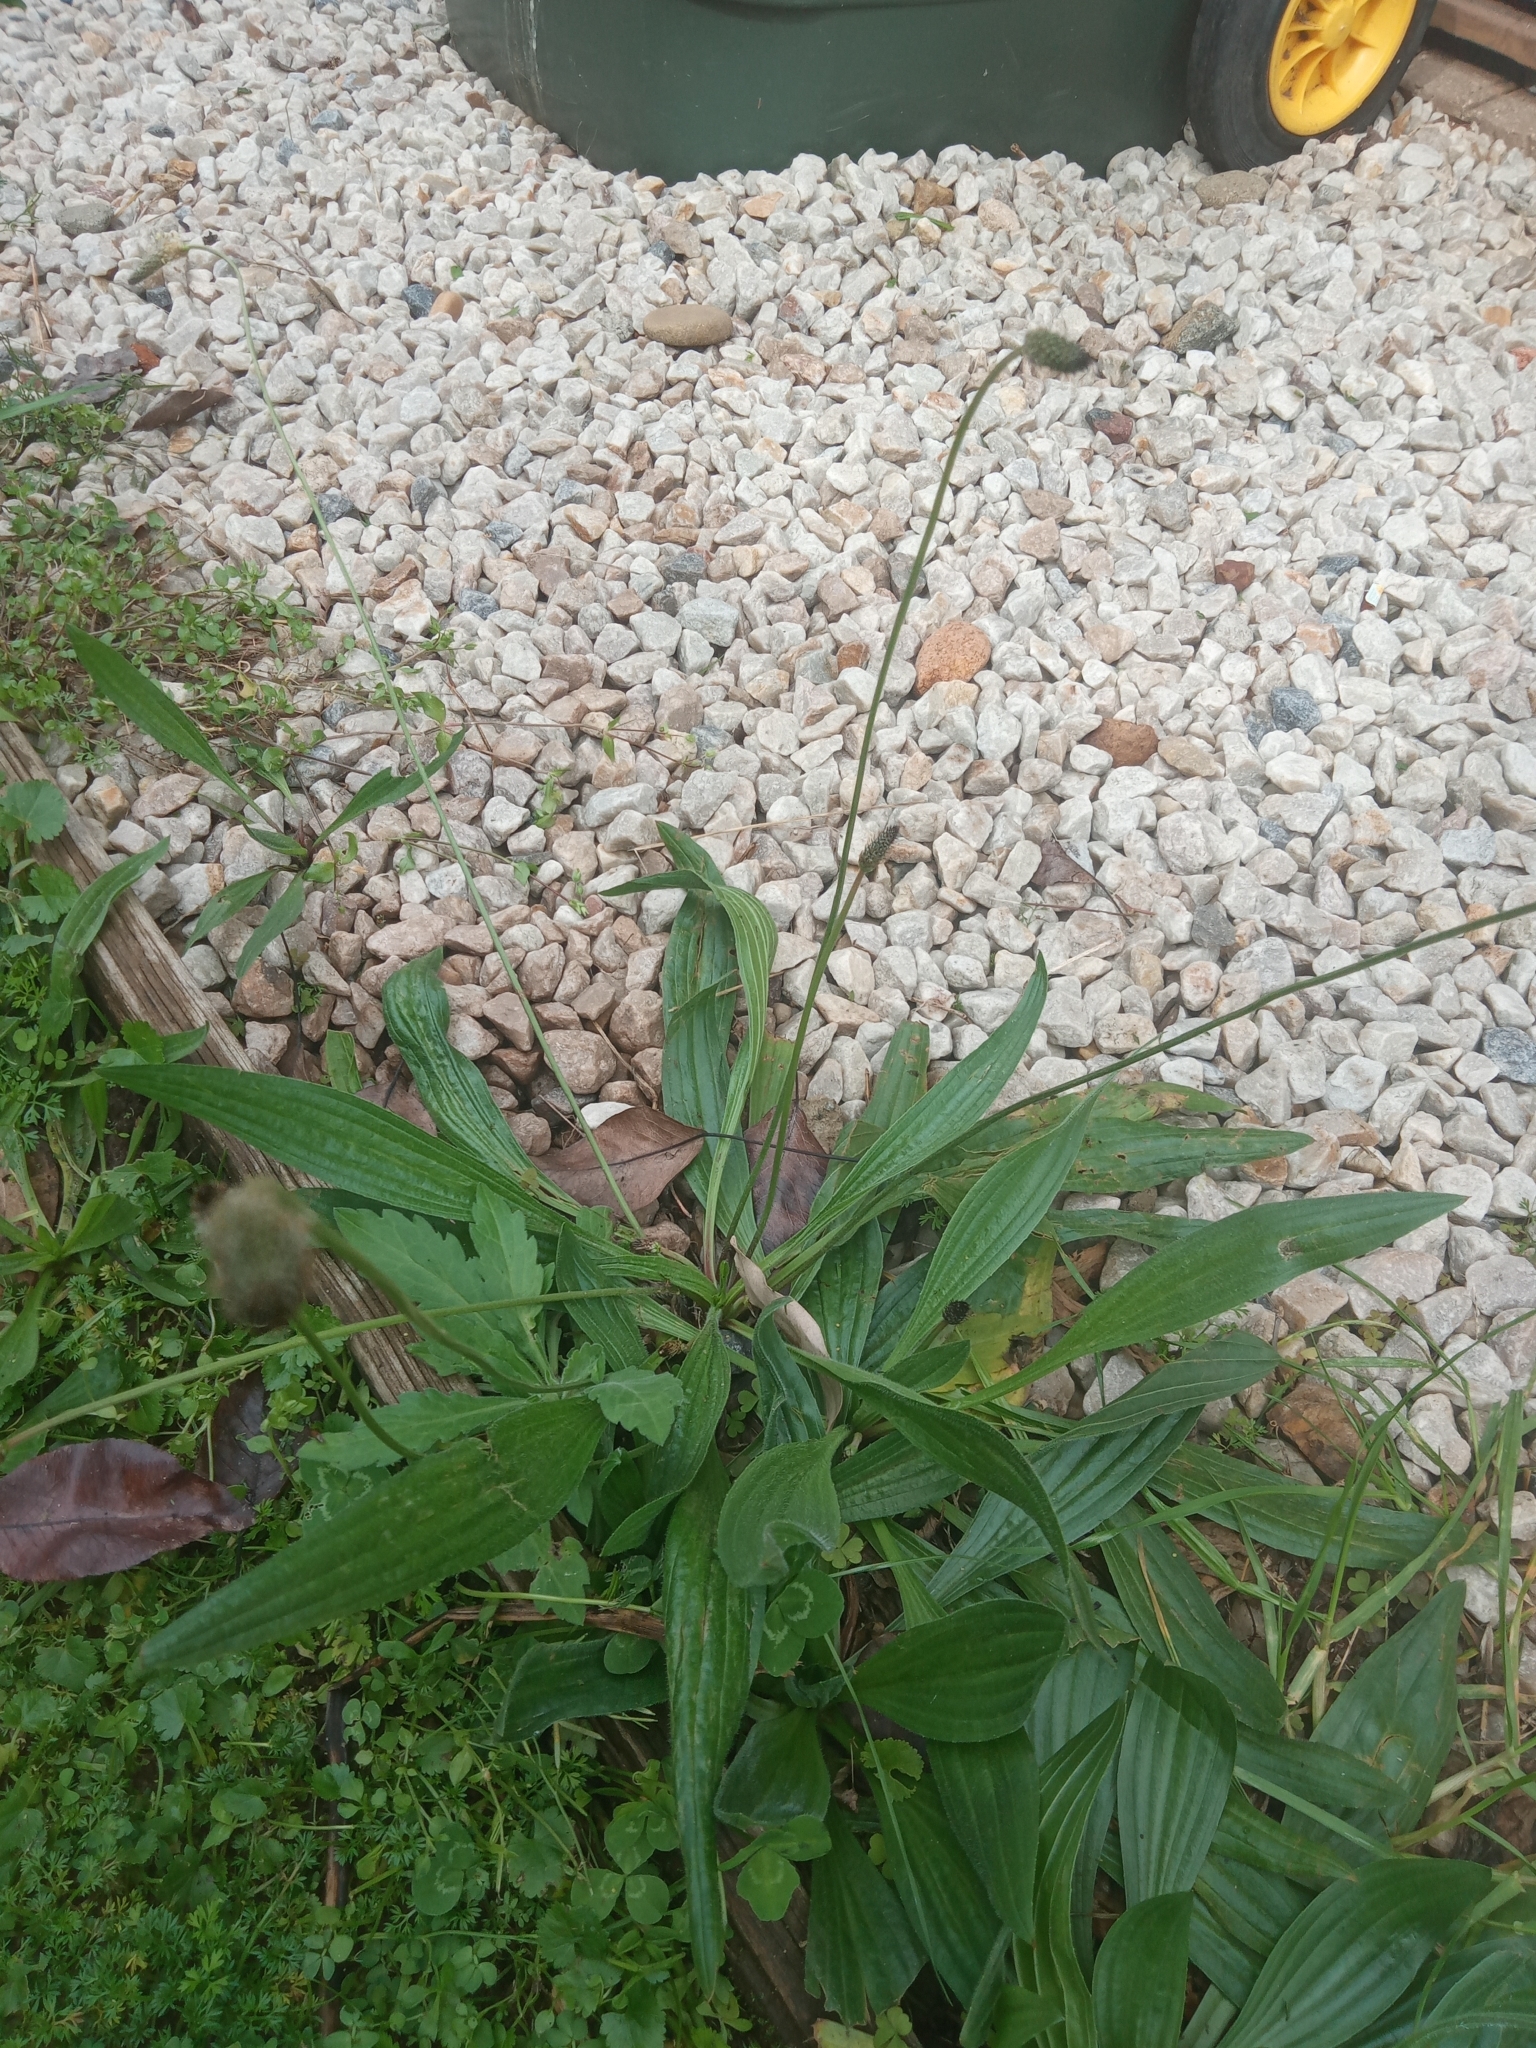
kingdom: Plantae
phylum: Tracheophyta
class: Magnoliopsida
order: Lamiales
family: Plantaginaceae
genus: Plantago
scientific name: Plantago lanceolata
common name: Ribwort plantain
